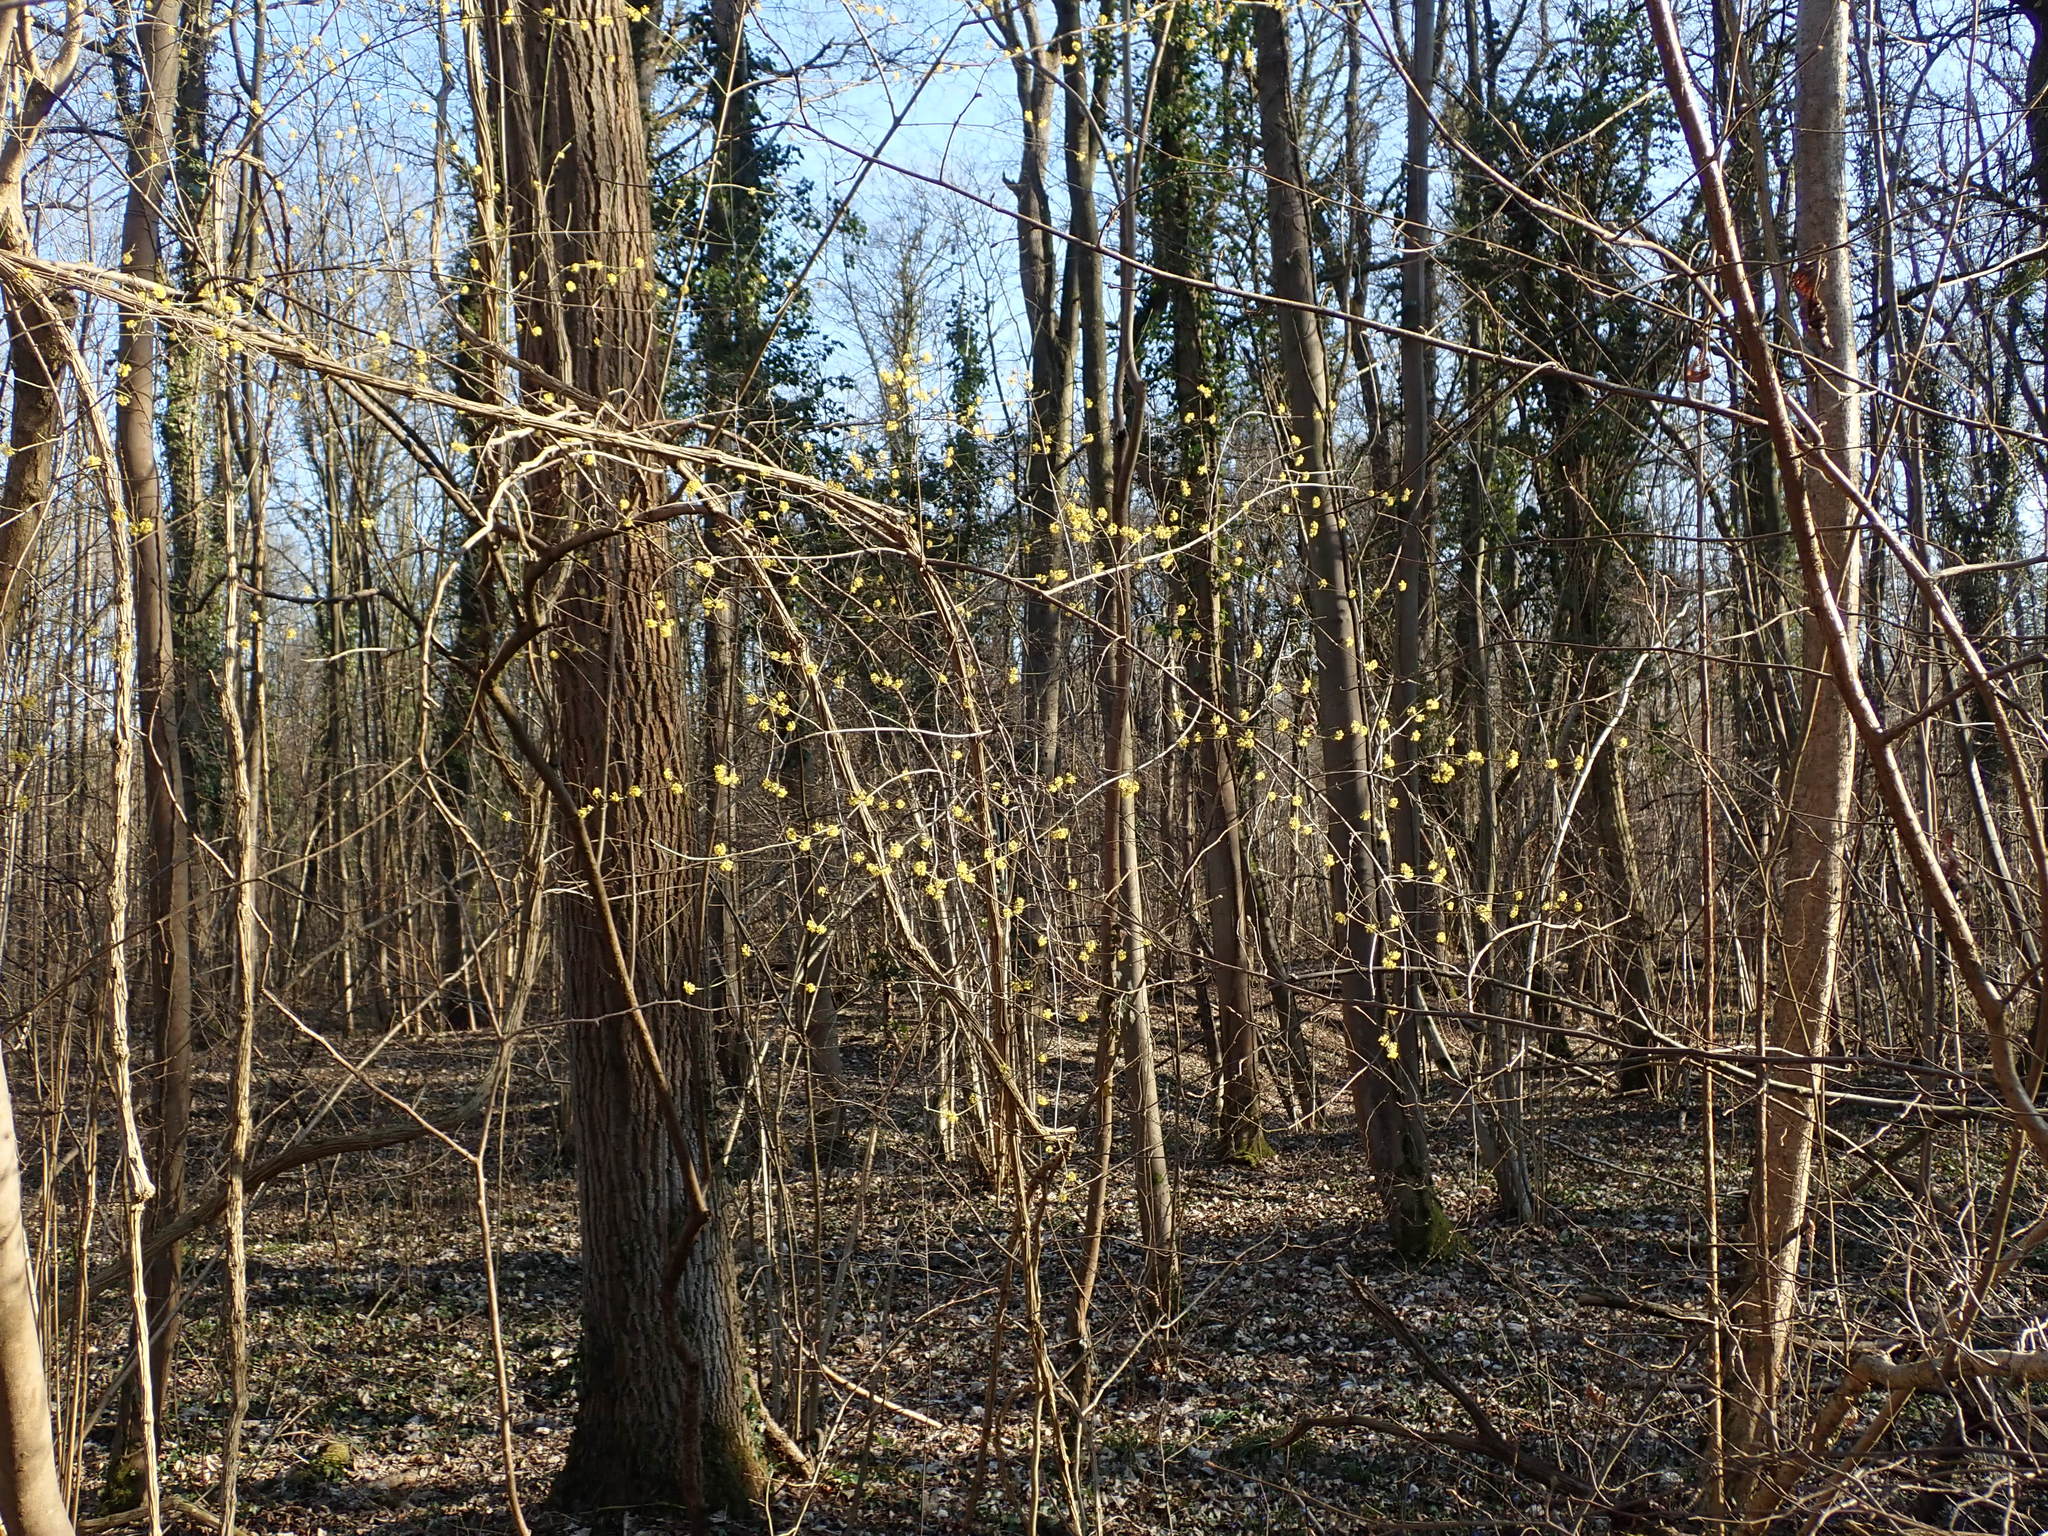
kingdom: Plantae
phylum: Tracheophyta
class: Magnoliopsida
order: Cornales
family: Cornaceae
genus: Cornus
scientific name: Cornus mas
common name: Cornelian-cherry
